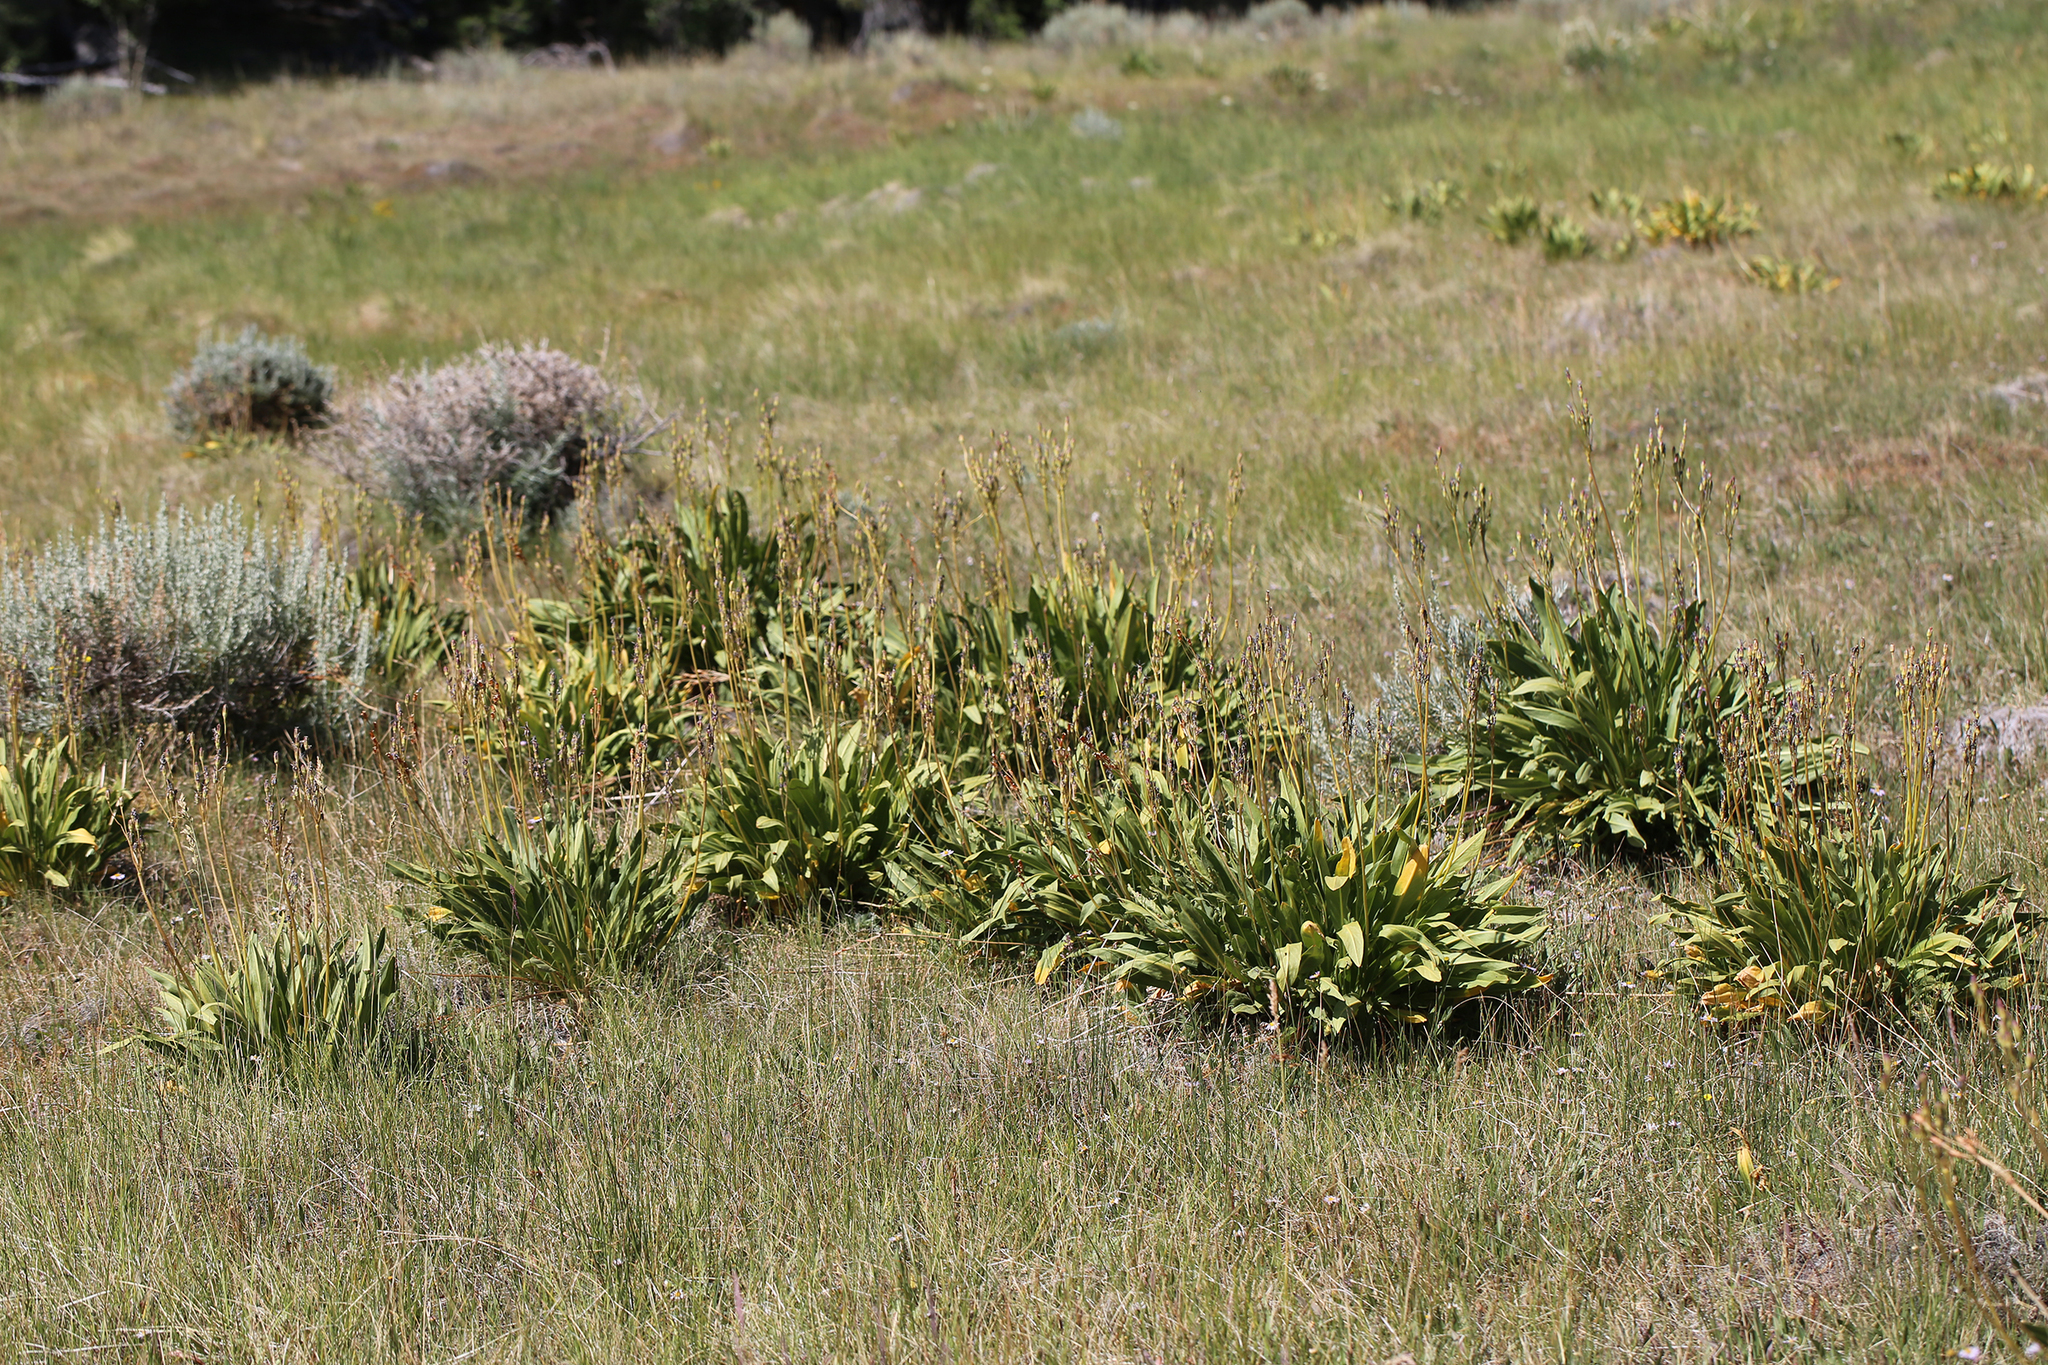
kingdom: Plantae
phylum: Tracheophyta
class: Magnoliopsida
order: Ericales
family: Primulaceae
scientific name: Primulaceae
